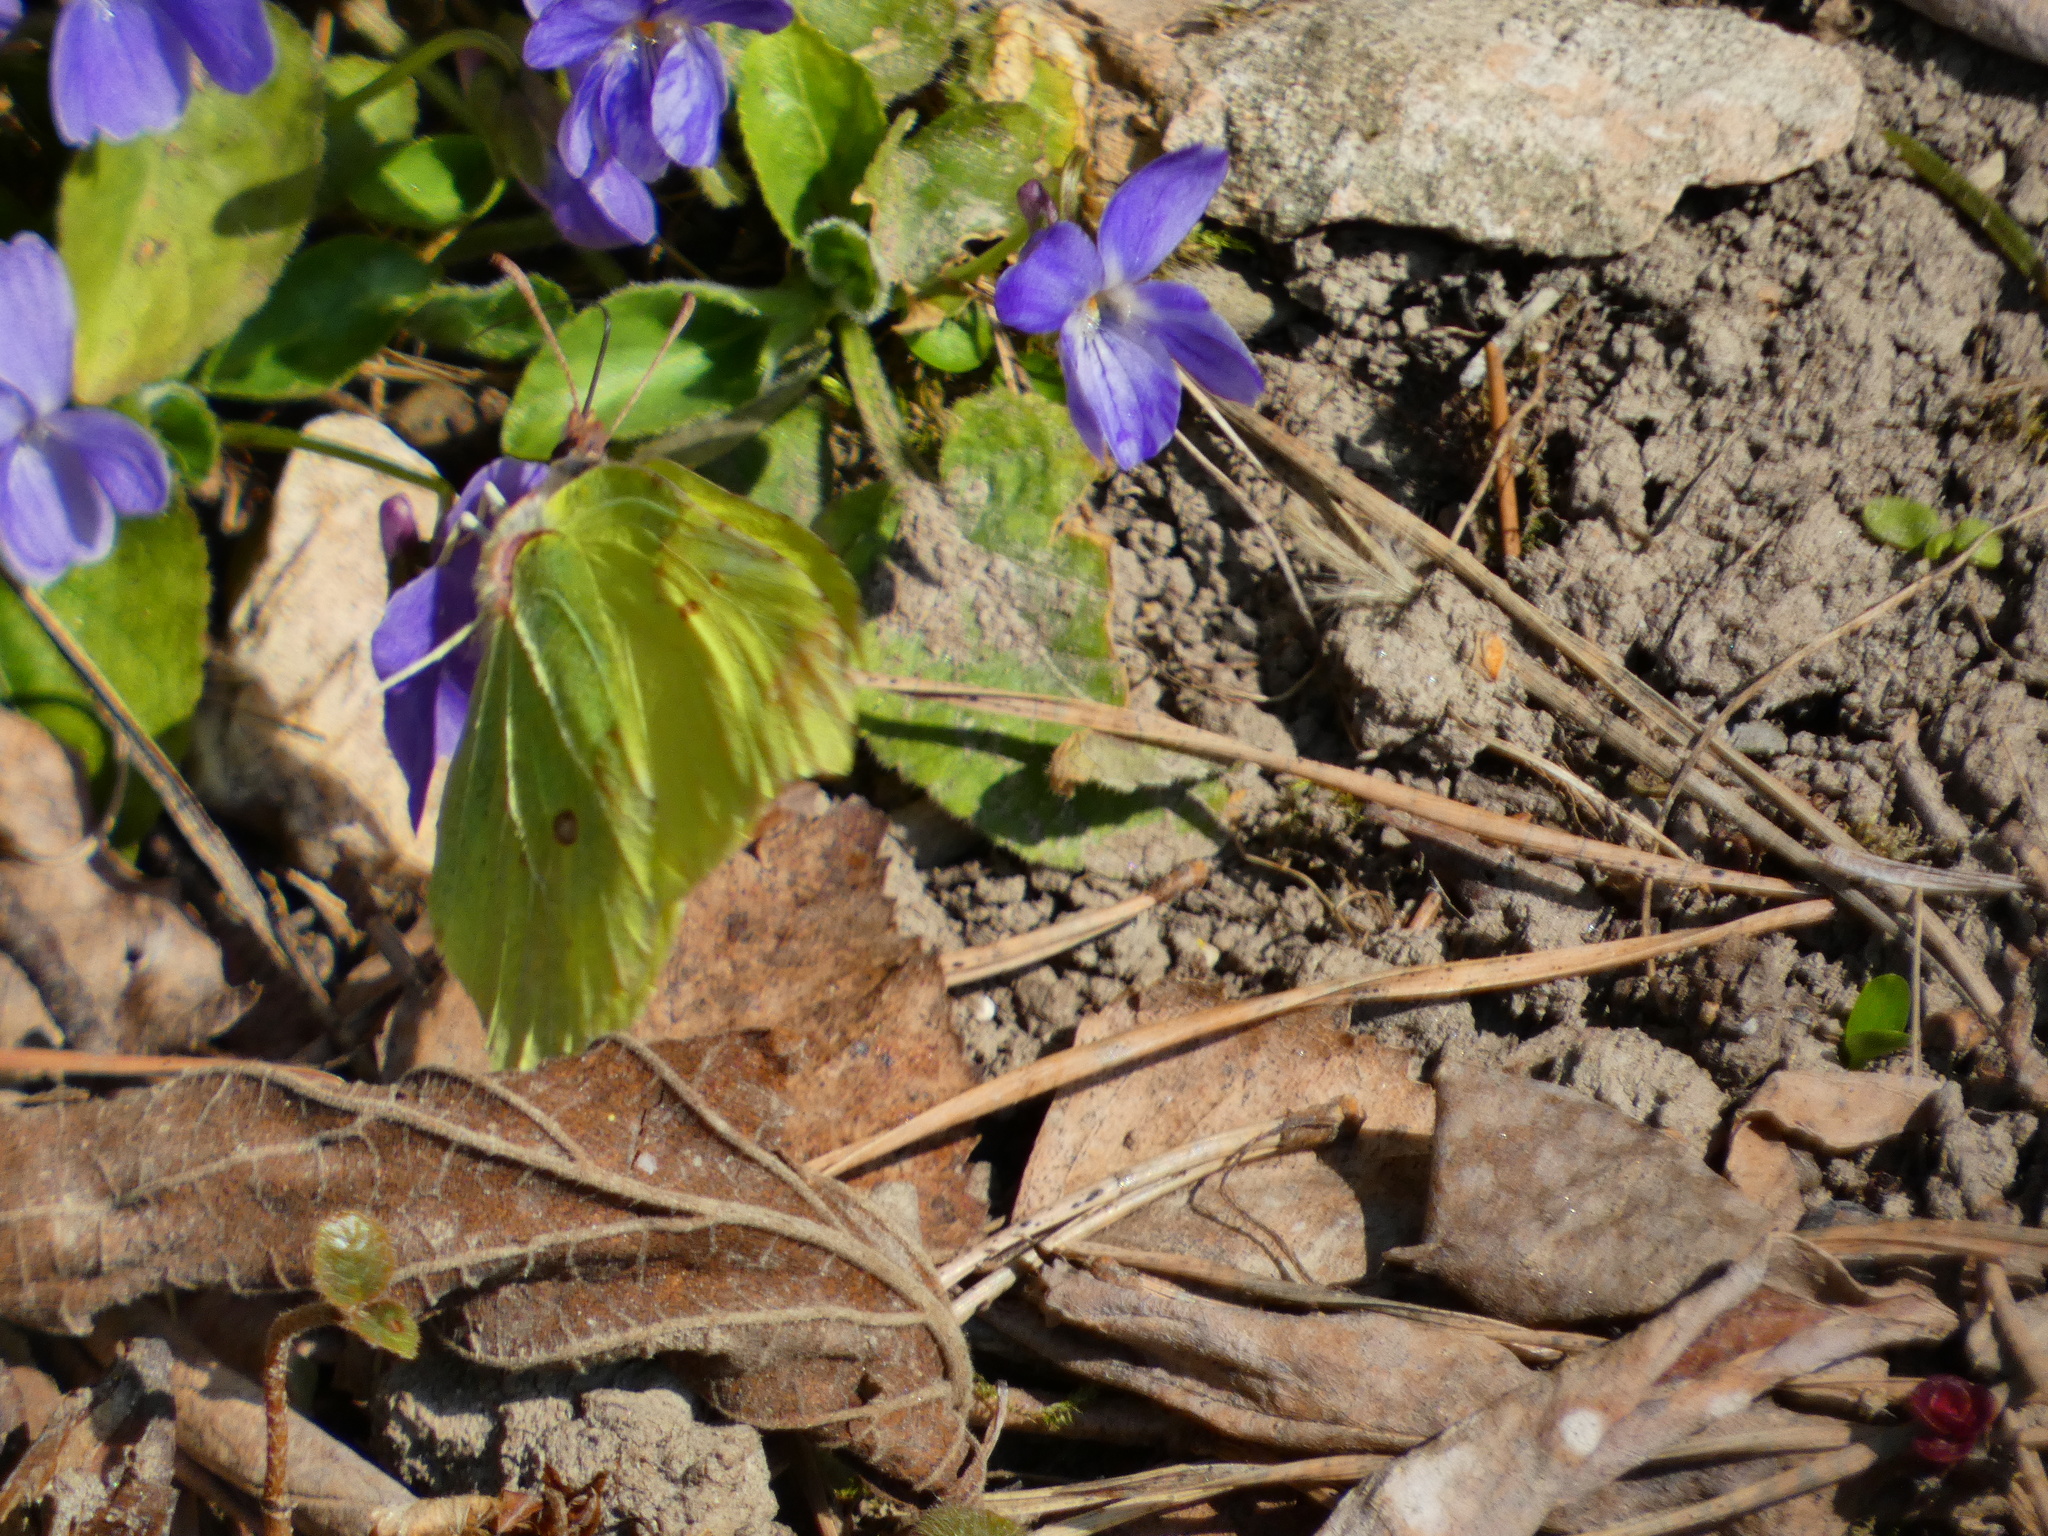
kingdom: Animalia
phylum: Arthropoda
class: Insecta
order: Lepidoptera
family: Pieridae
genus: Gonepteryx
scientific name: Gonepteryx rhamni
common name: Brimstone
